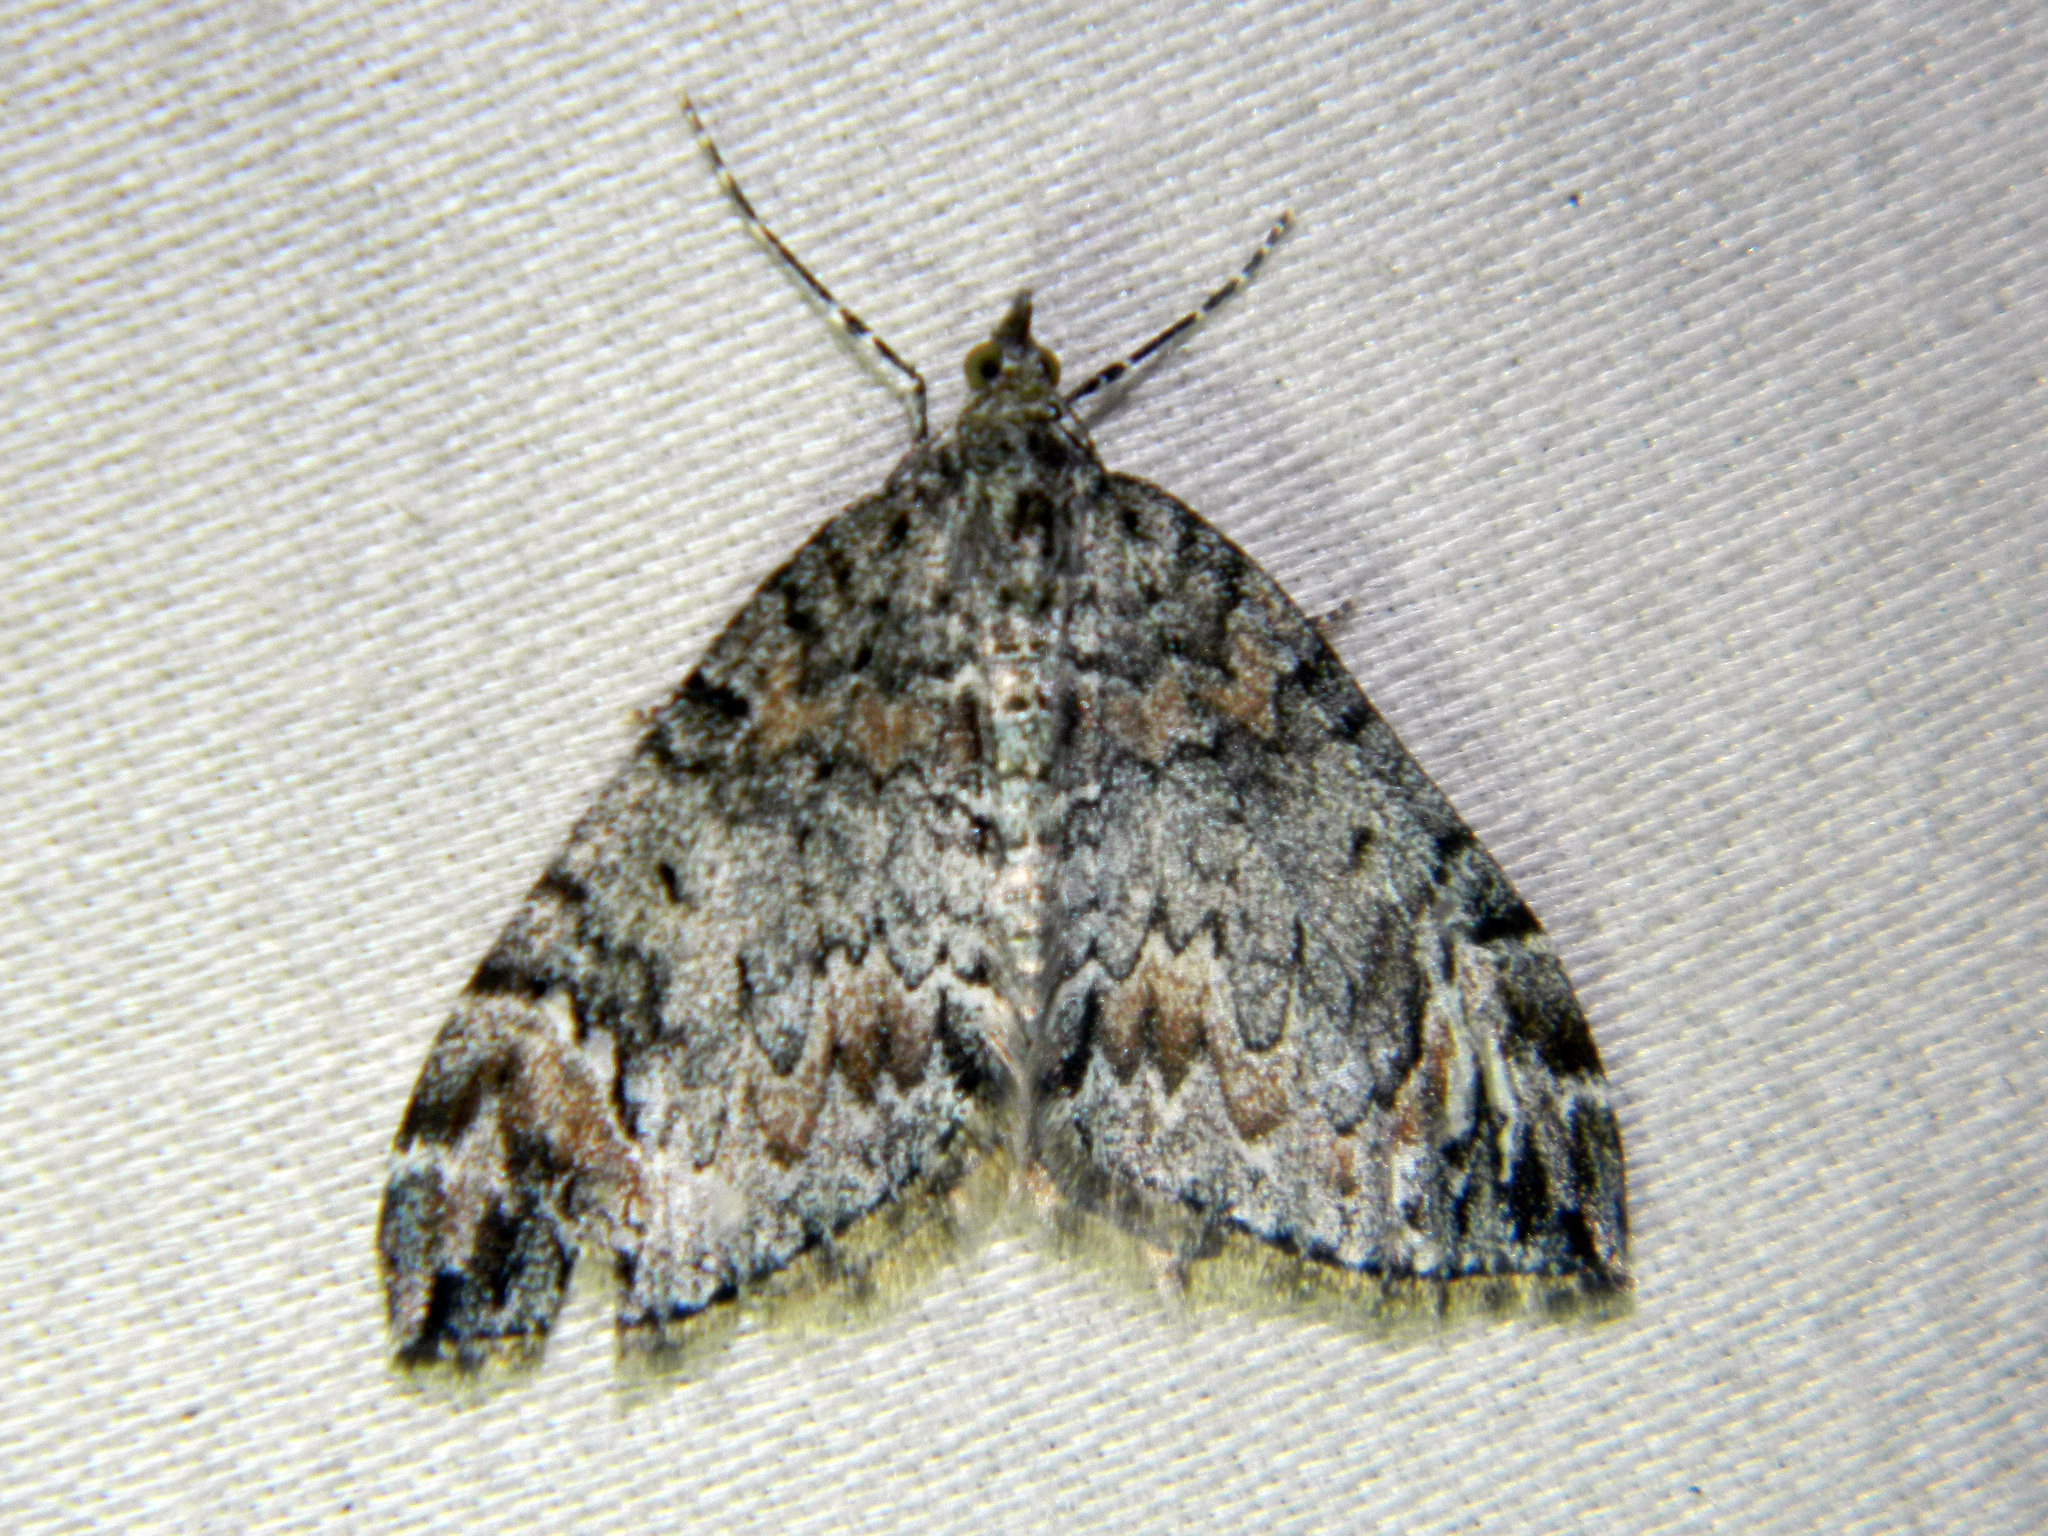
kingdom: Animalia
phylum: Arthropoda
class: Insecta
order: Lepidoptera
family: Geometridae
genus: Dysstroma
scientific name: Dysstroma citrata
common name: Dark marbled carpet
